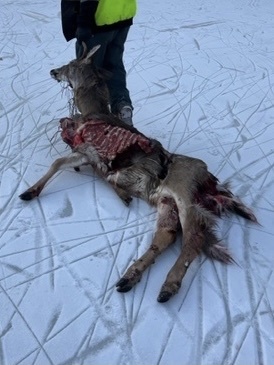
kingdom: Animalia
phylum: Chordata
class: Mammalia
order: Carnivora
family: Canidae
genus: Canis
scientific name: Canis latrans
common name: Coyote
